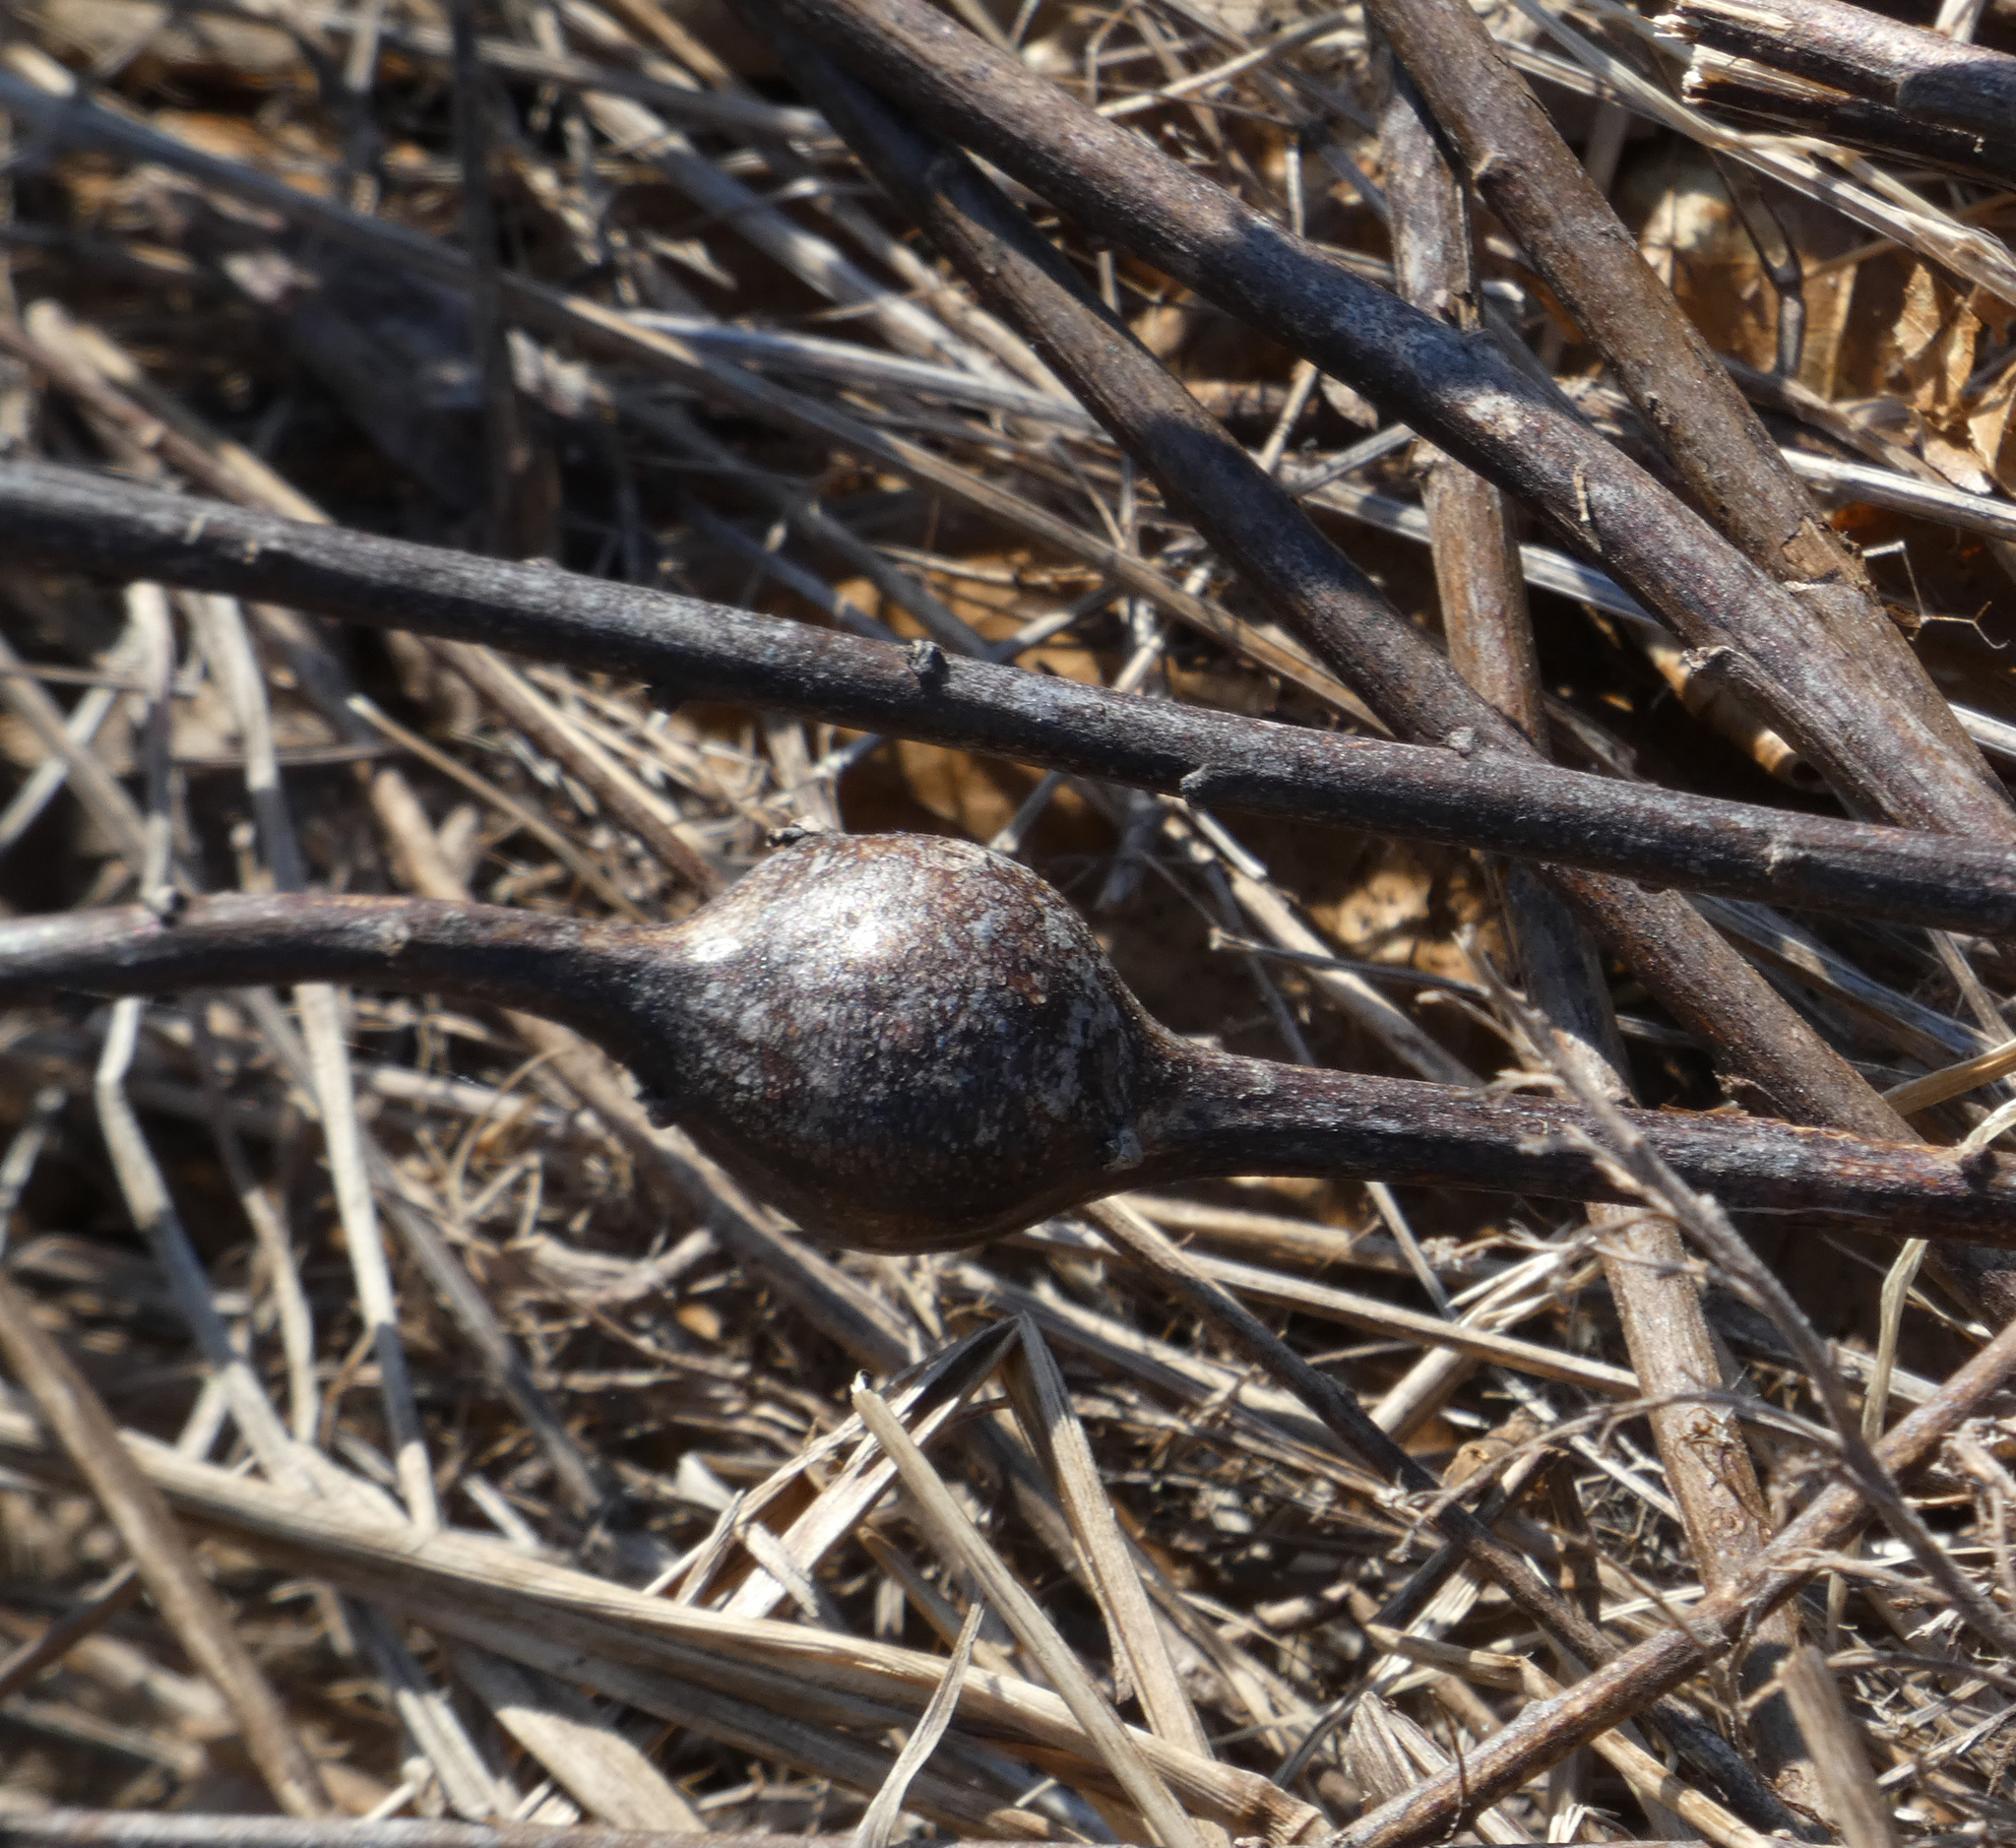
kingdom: Animalia
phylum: Arthropoda
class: Insecta
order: Diptera
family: Tephritidae
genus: Eurosta
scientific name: Eurosta solidaginis
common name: Goldenrod gall fly
